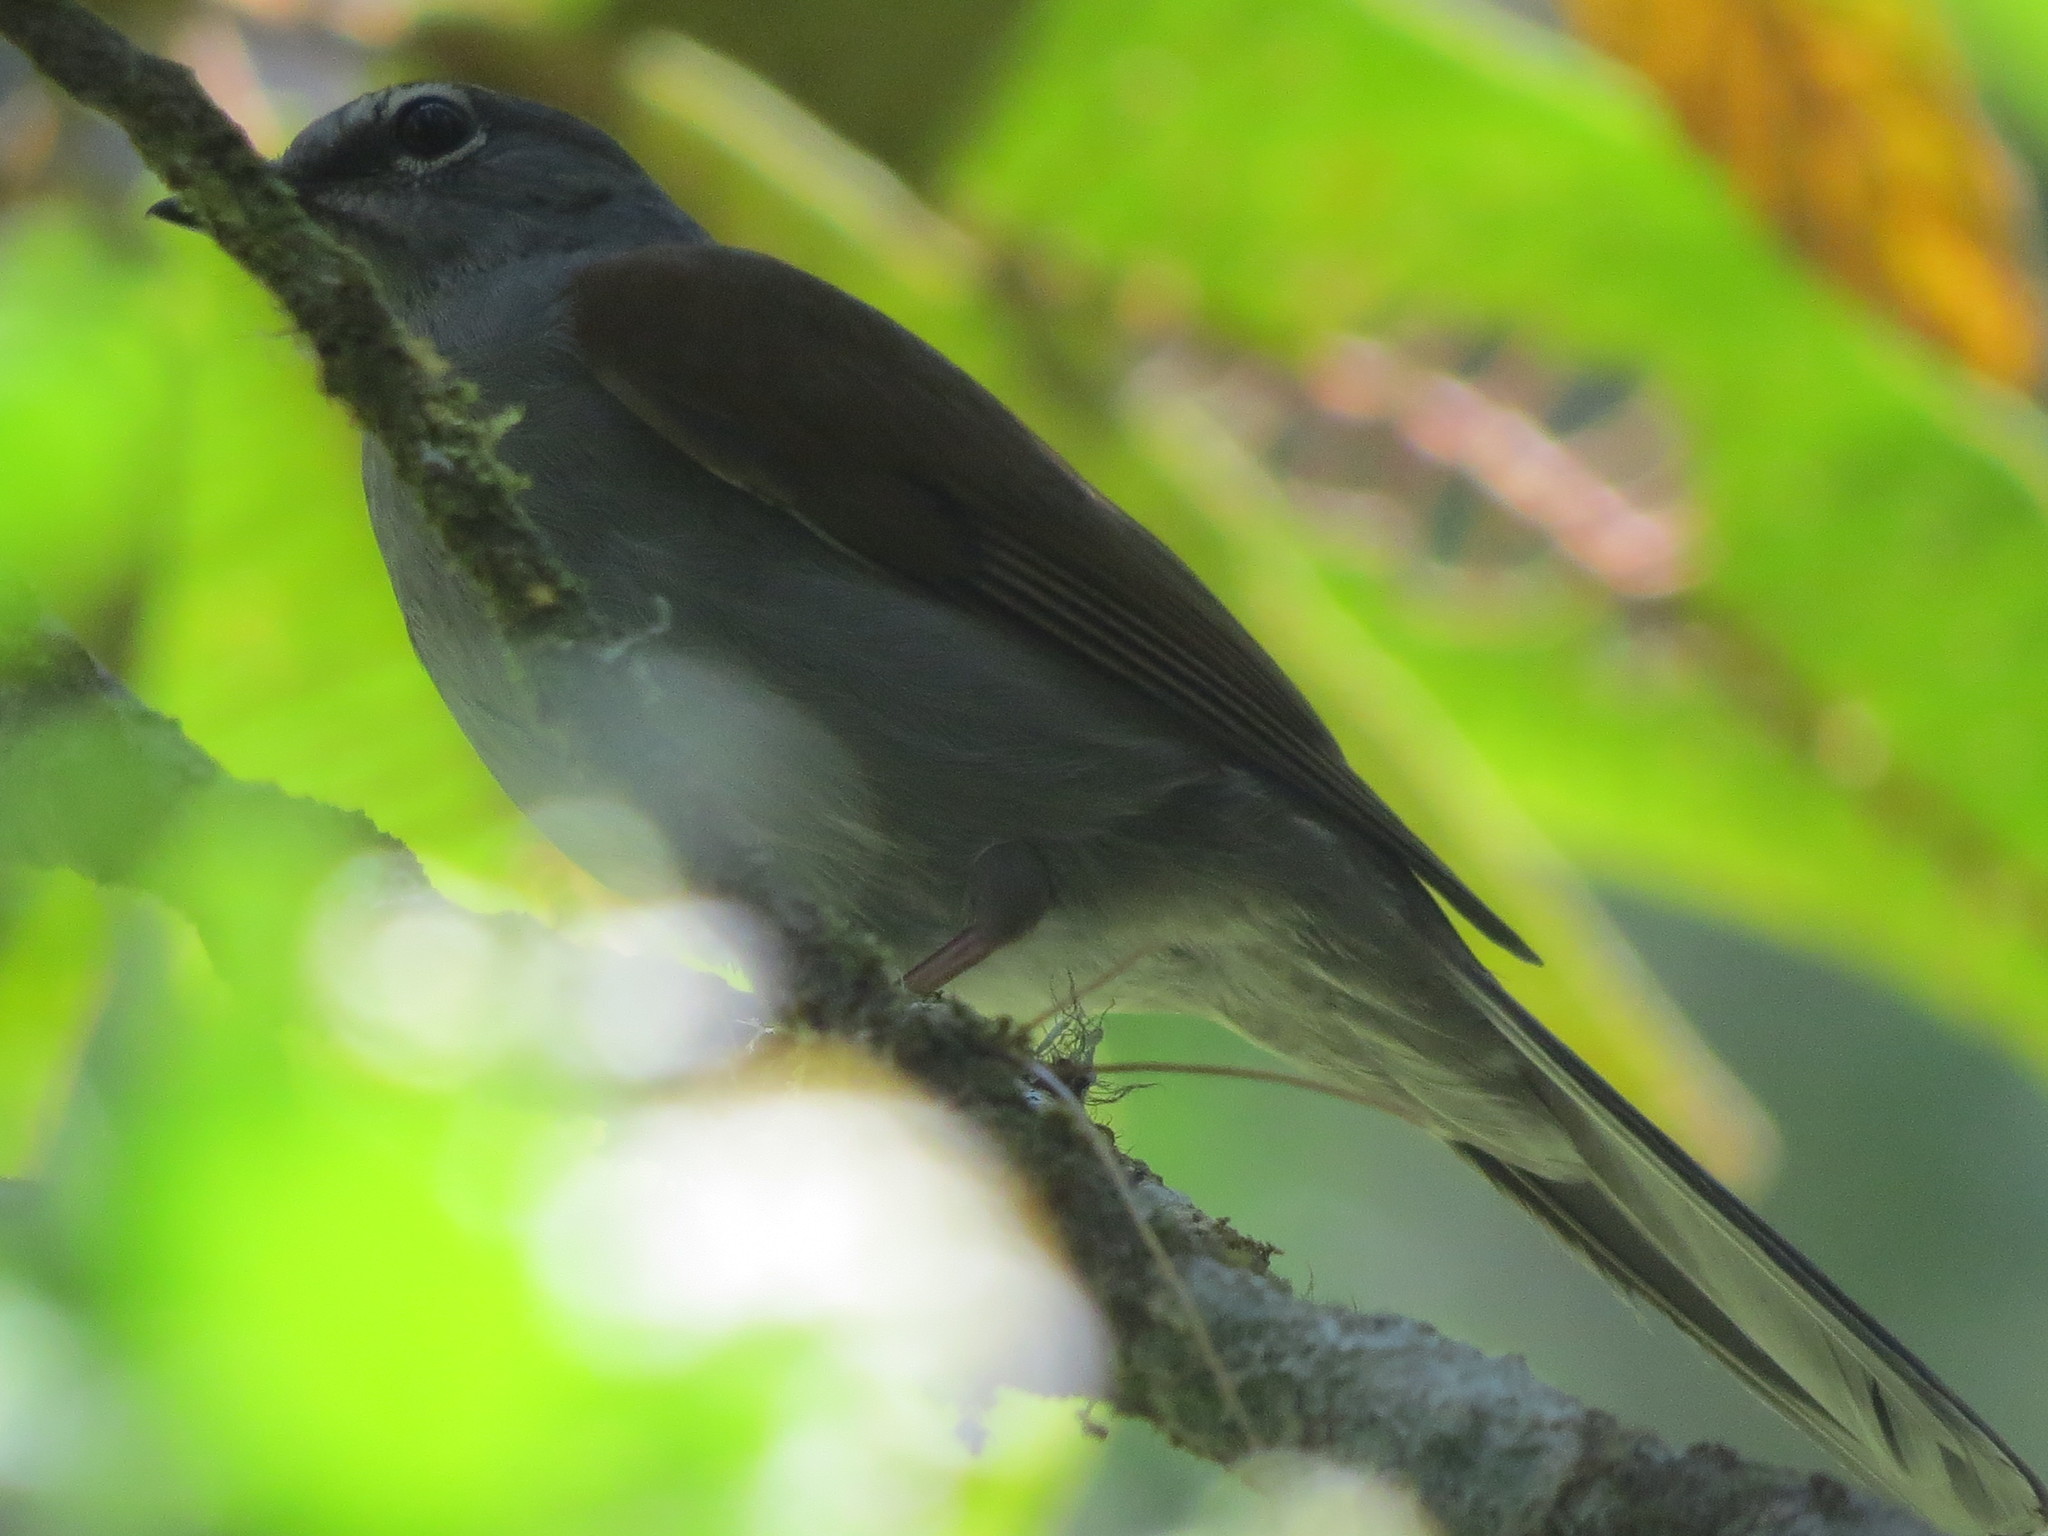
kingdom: Animalia
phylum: Chordata
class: Aves
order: Passeriformes
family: Turdidae
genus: Myadestes
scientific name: Myadestes occidentalis
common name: Brown-backed solitaire
